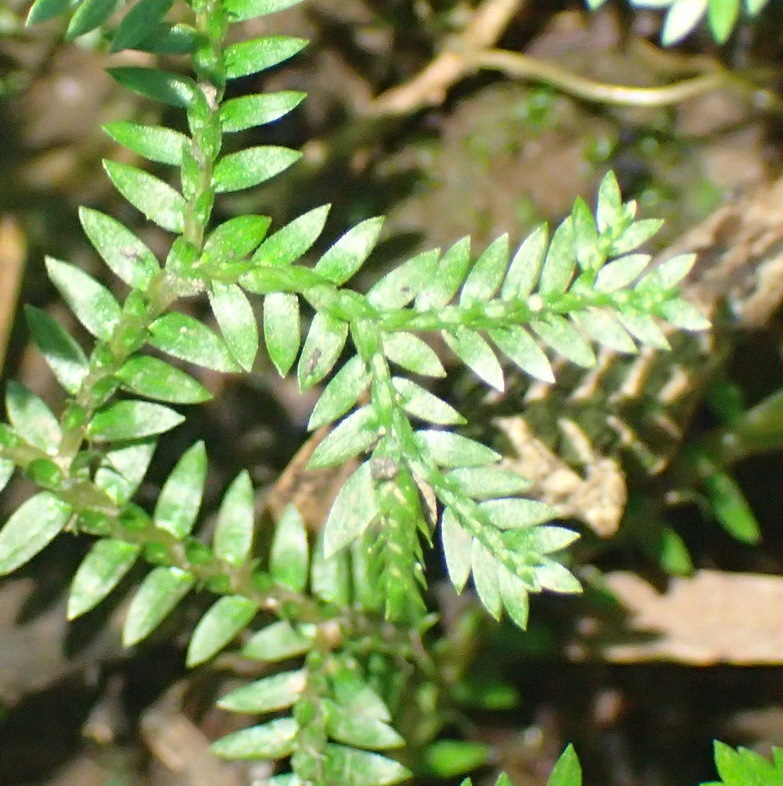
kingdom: Plantae
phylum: Tracheophyta
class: Lycopodiopsida
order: Selaginellales
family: Selaginellaceae
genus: Selaginella
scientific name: Selaginella kraussiana
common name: Krauss' spikemoss
